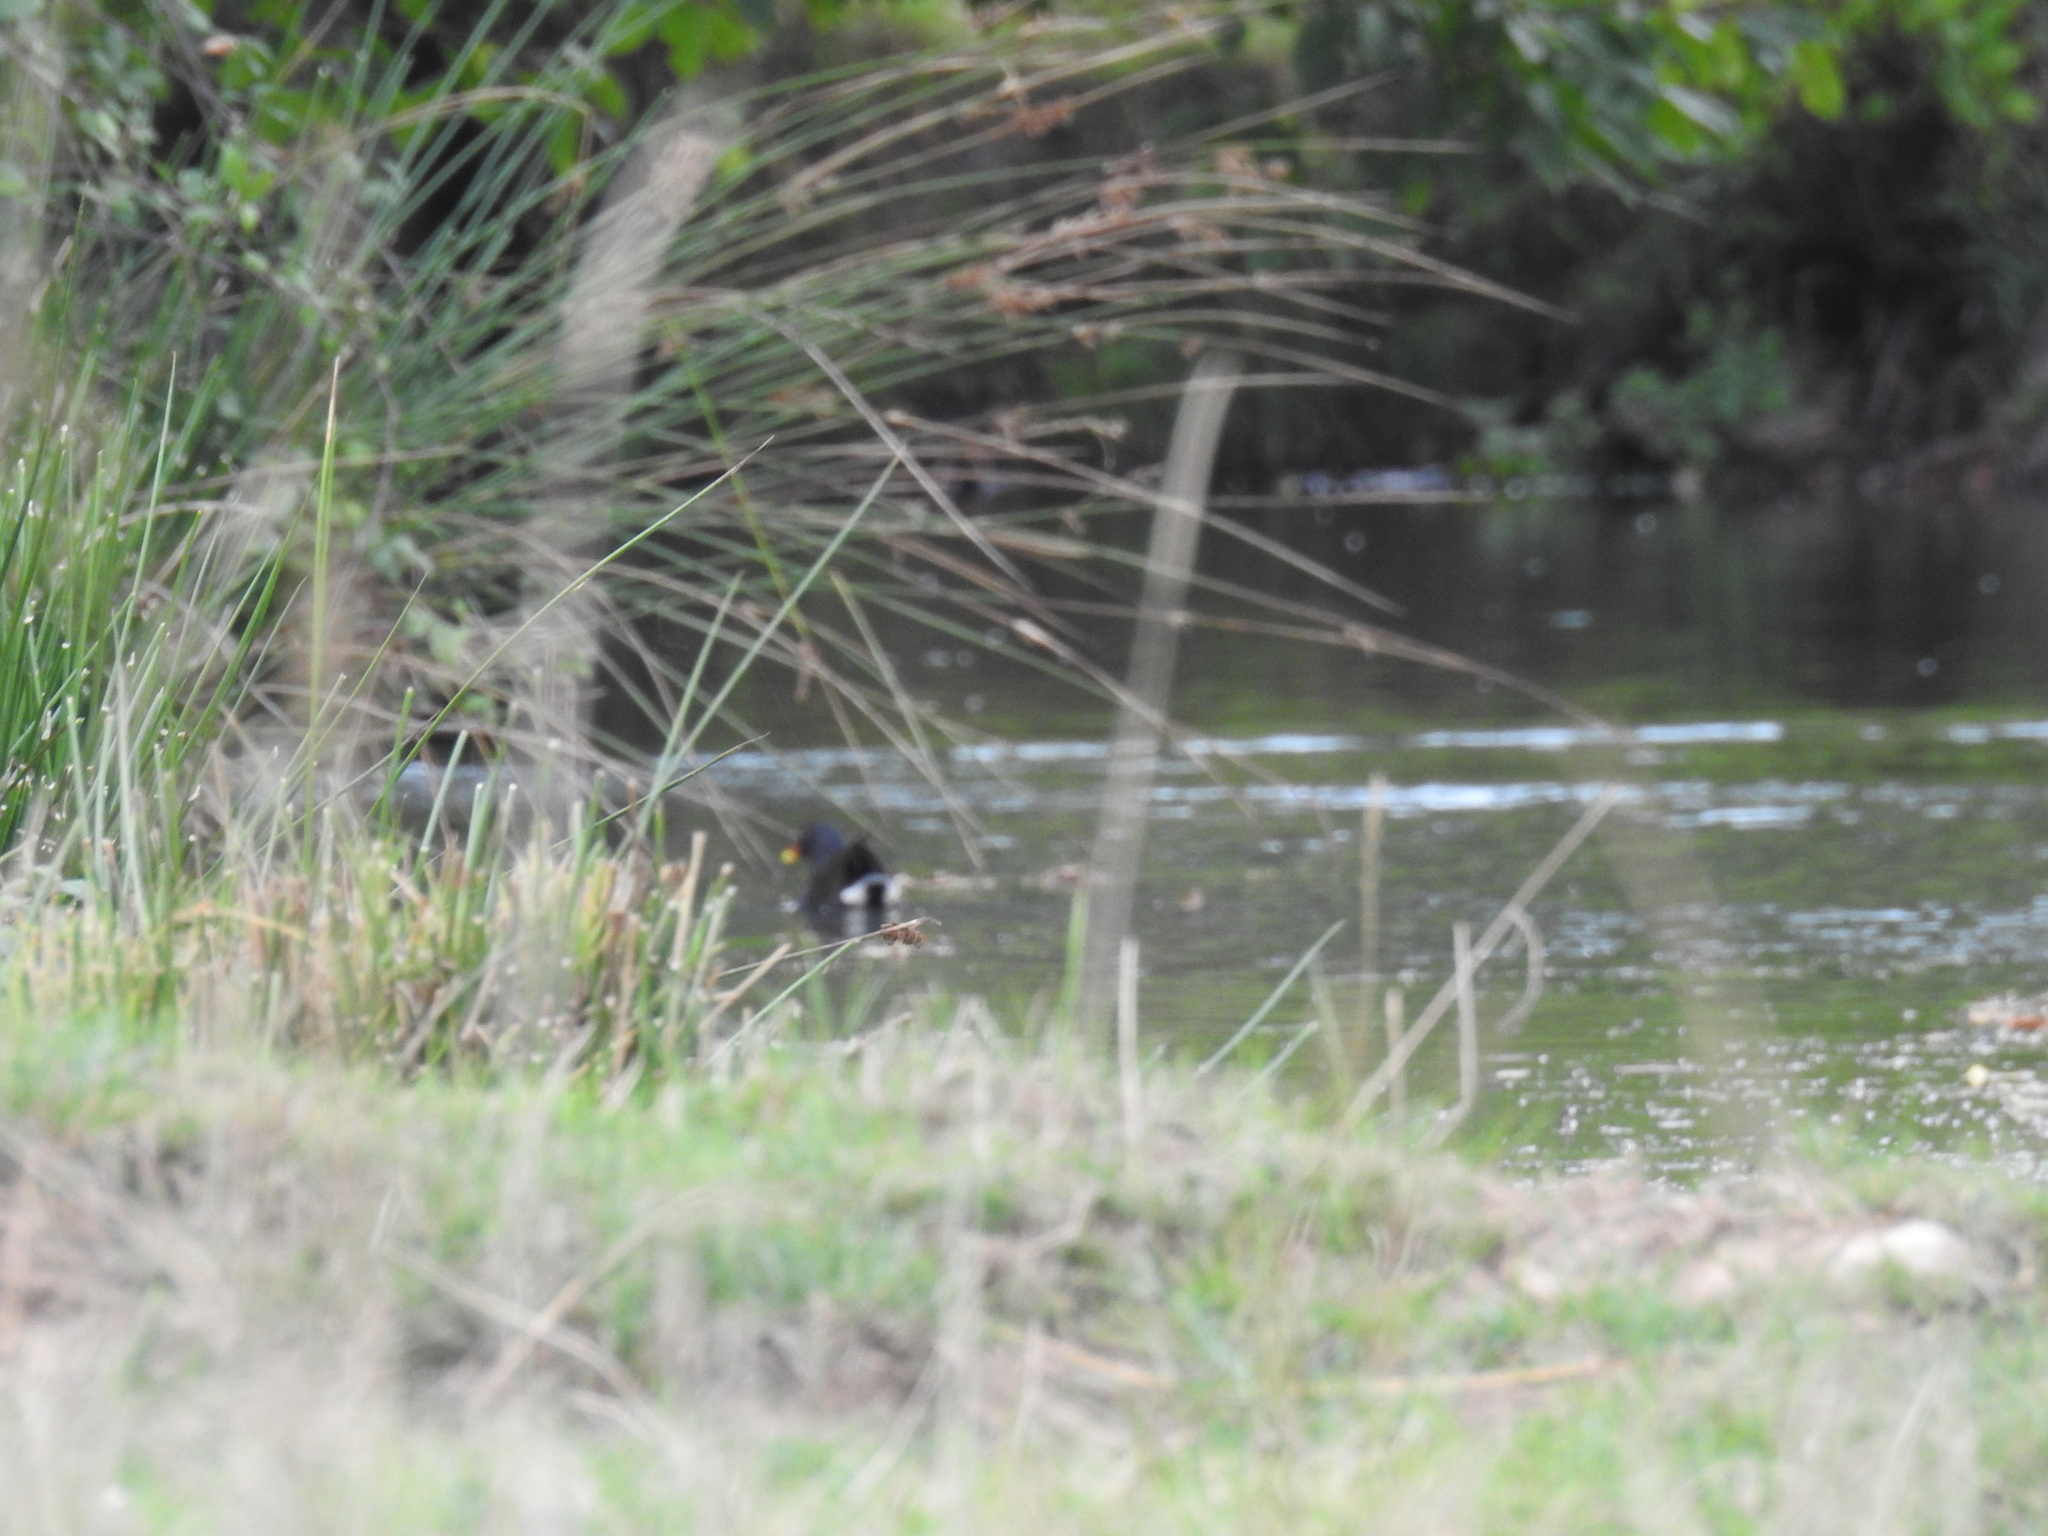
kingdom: Animalia
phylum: Chordata
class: Aves
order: Gruiformes
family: Rallidae
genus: Gallinula
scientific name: Gallinula chloropus
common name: Common moorhen
